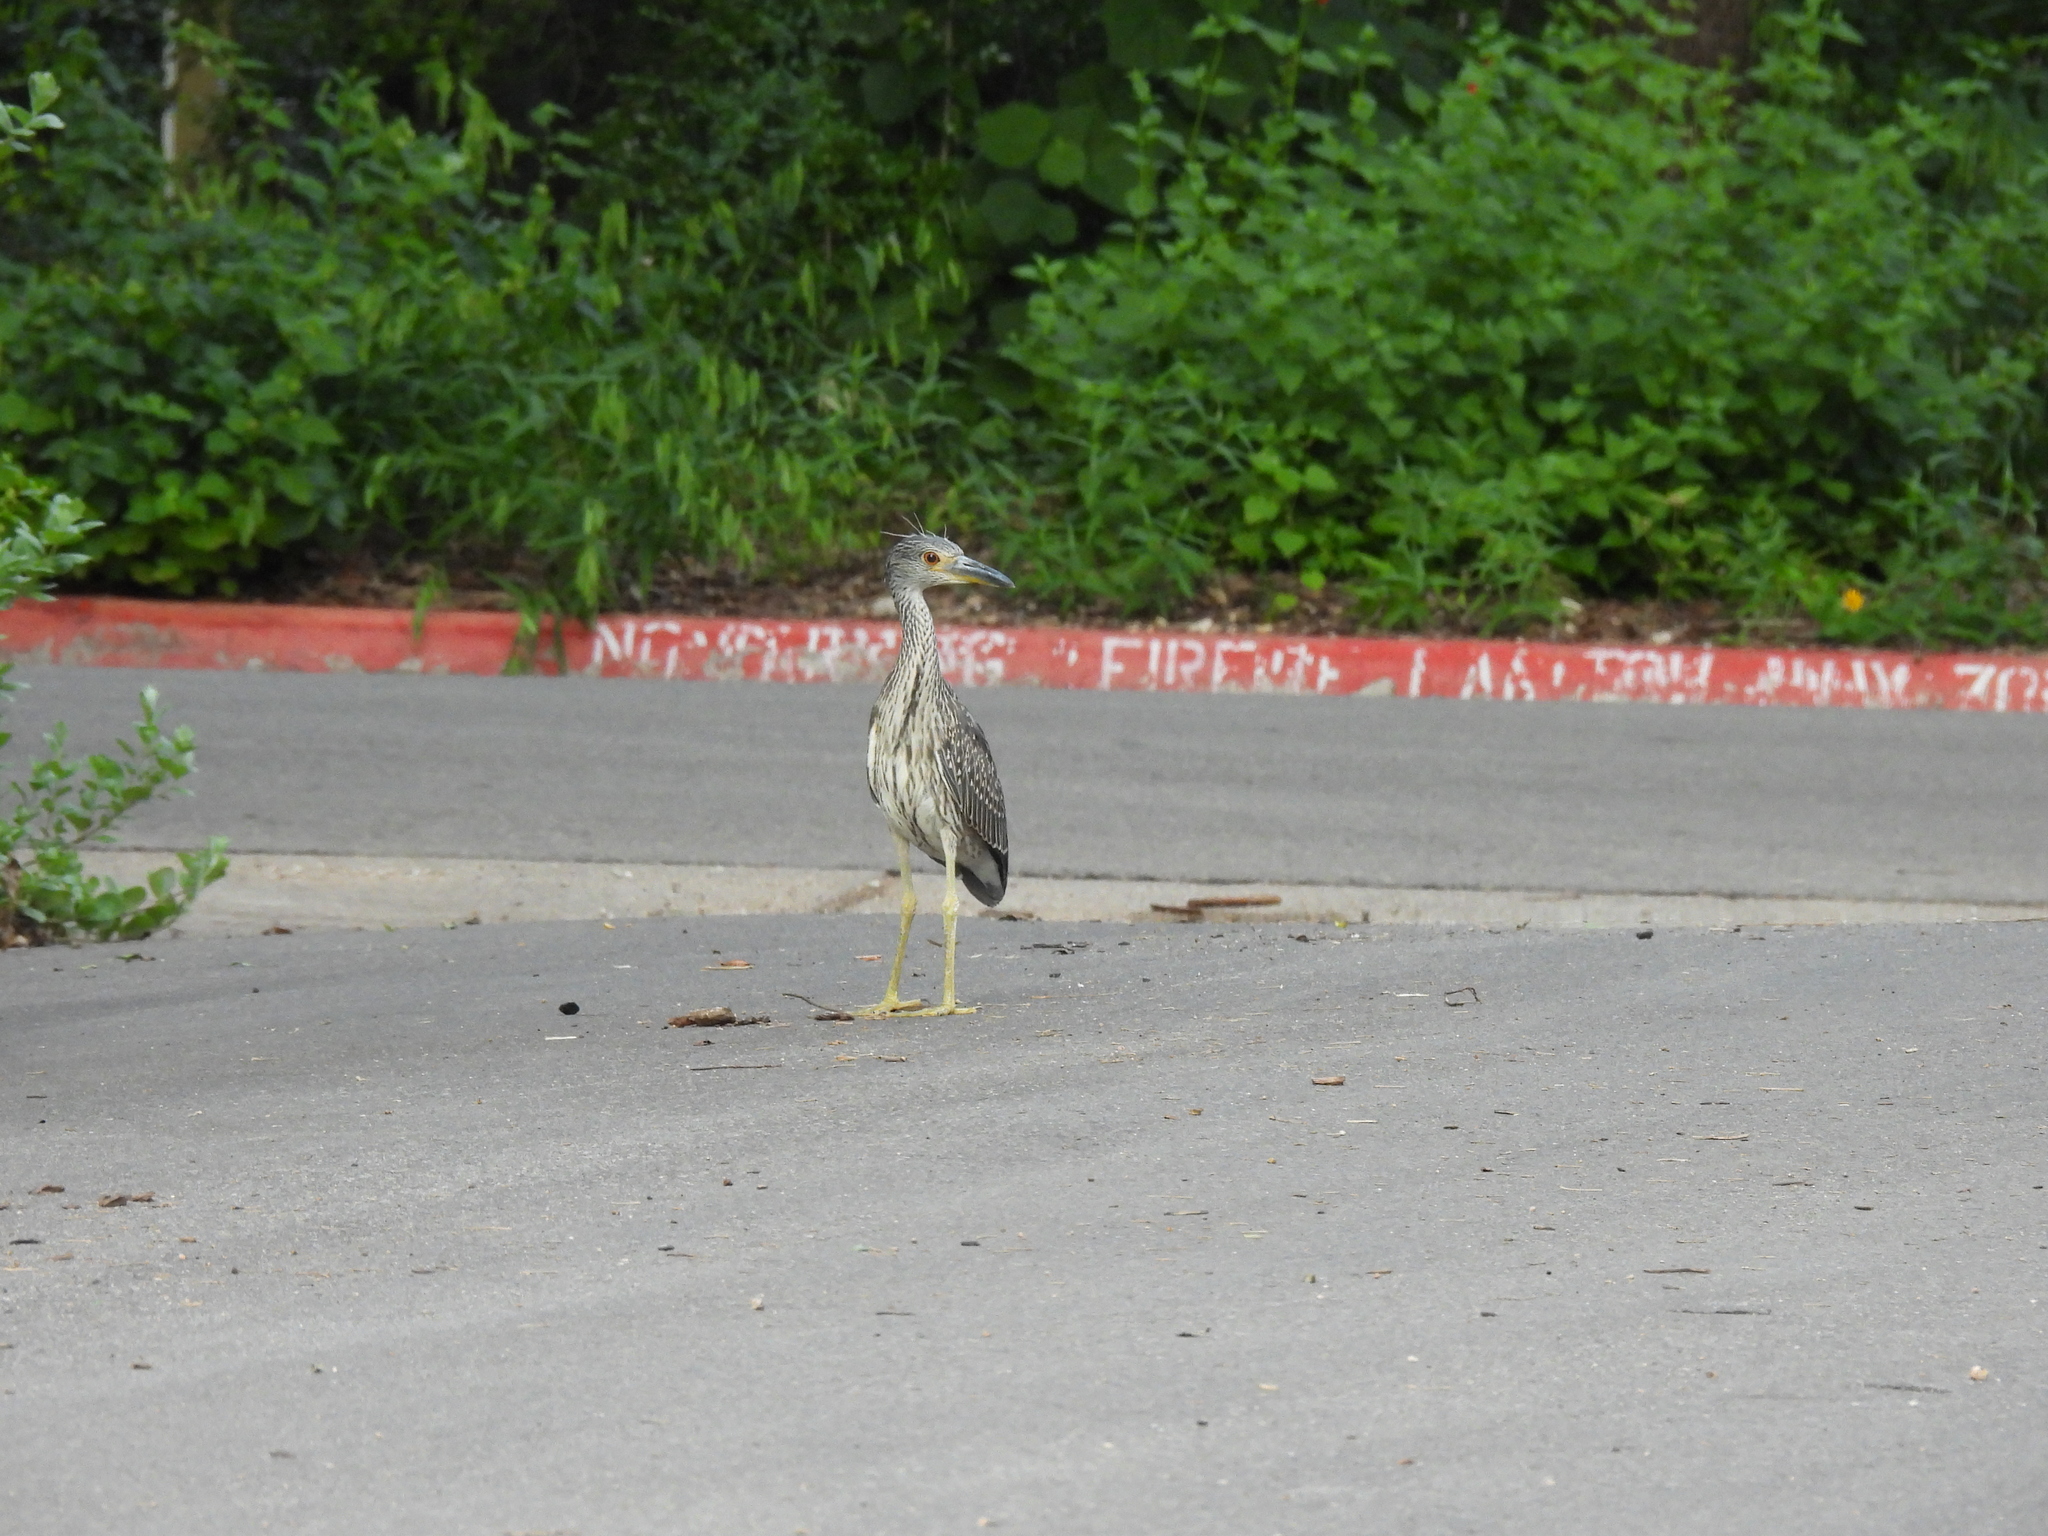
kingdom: Animalia
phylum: Chordata
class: Aves
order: Pelecaniformes
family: Ardeidae
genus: Nyctanassa
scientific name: Nyctanassa violacea
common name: Yellow-crowned night heron
